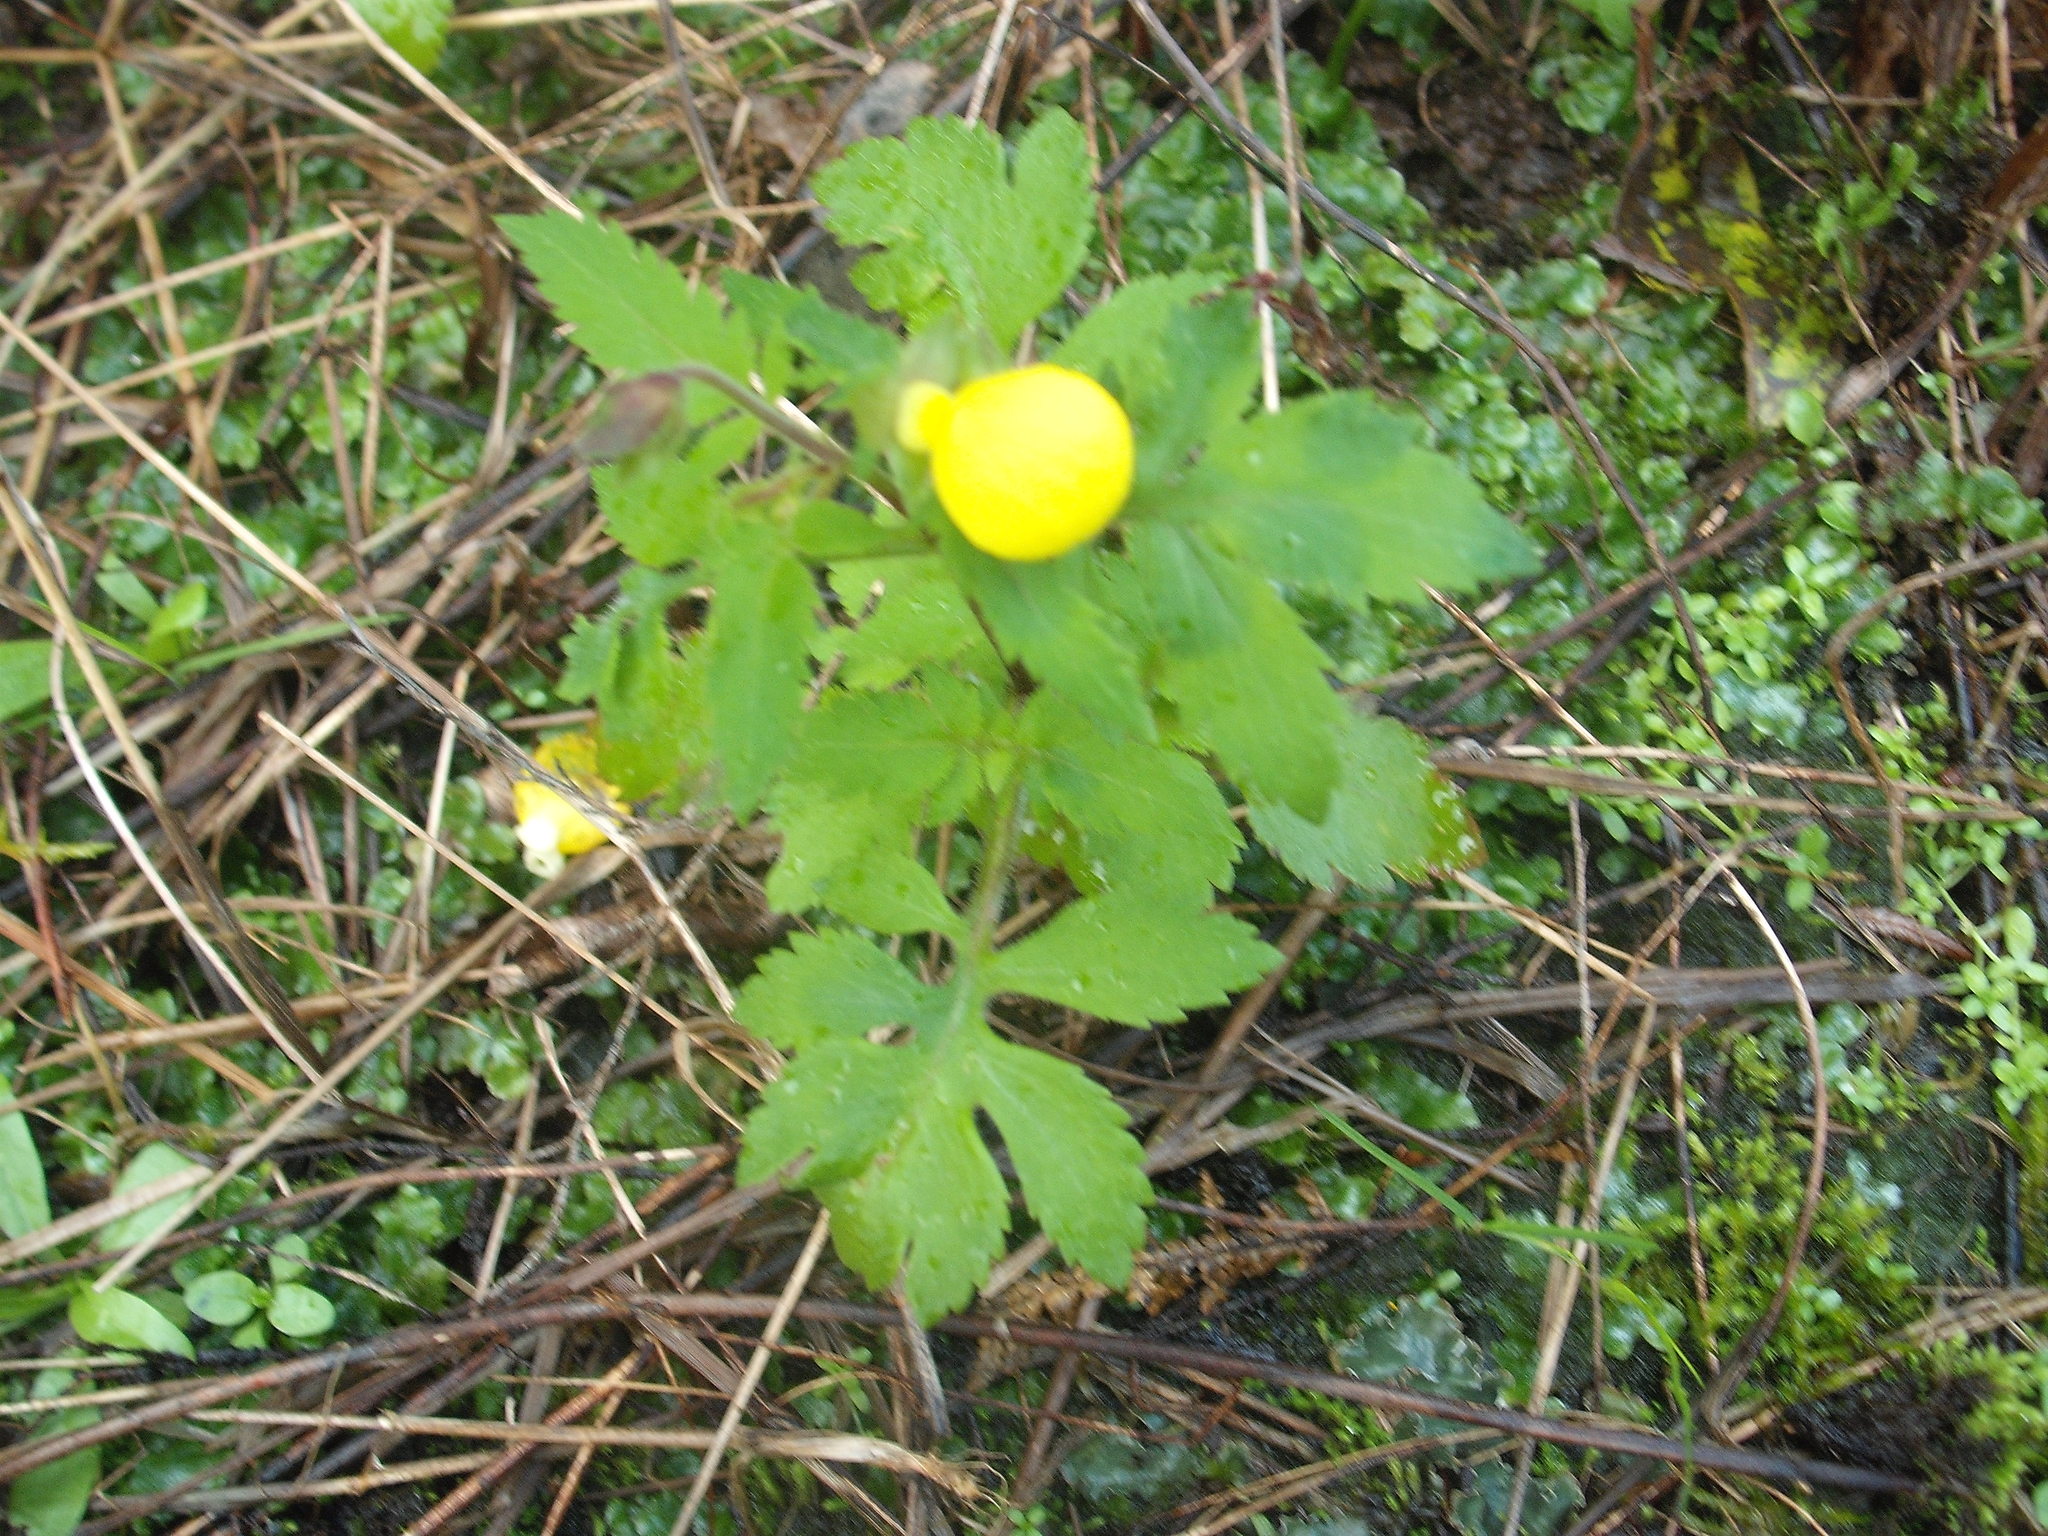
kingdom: Plantae
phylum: Tracheophyta
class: Magnoliopsida
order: Lamiales
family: Calceolariaceae
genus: Calceolaria
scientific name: Calceolaria tripartita
